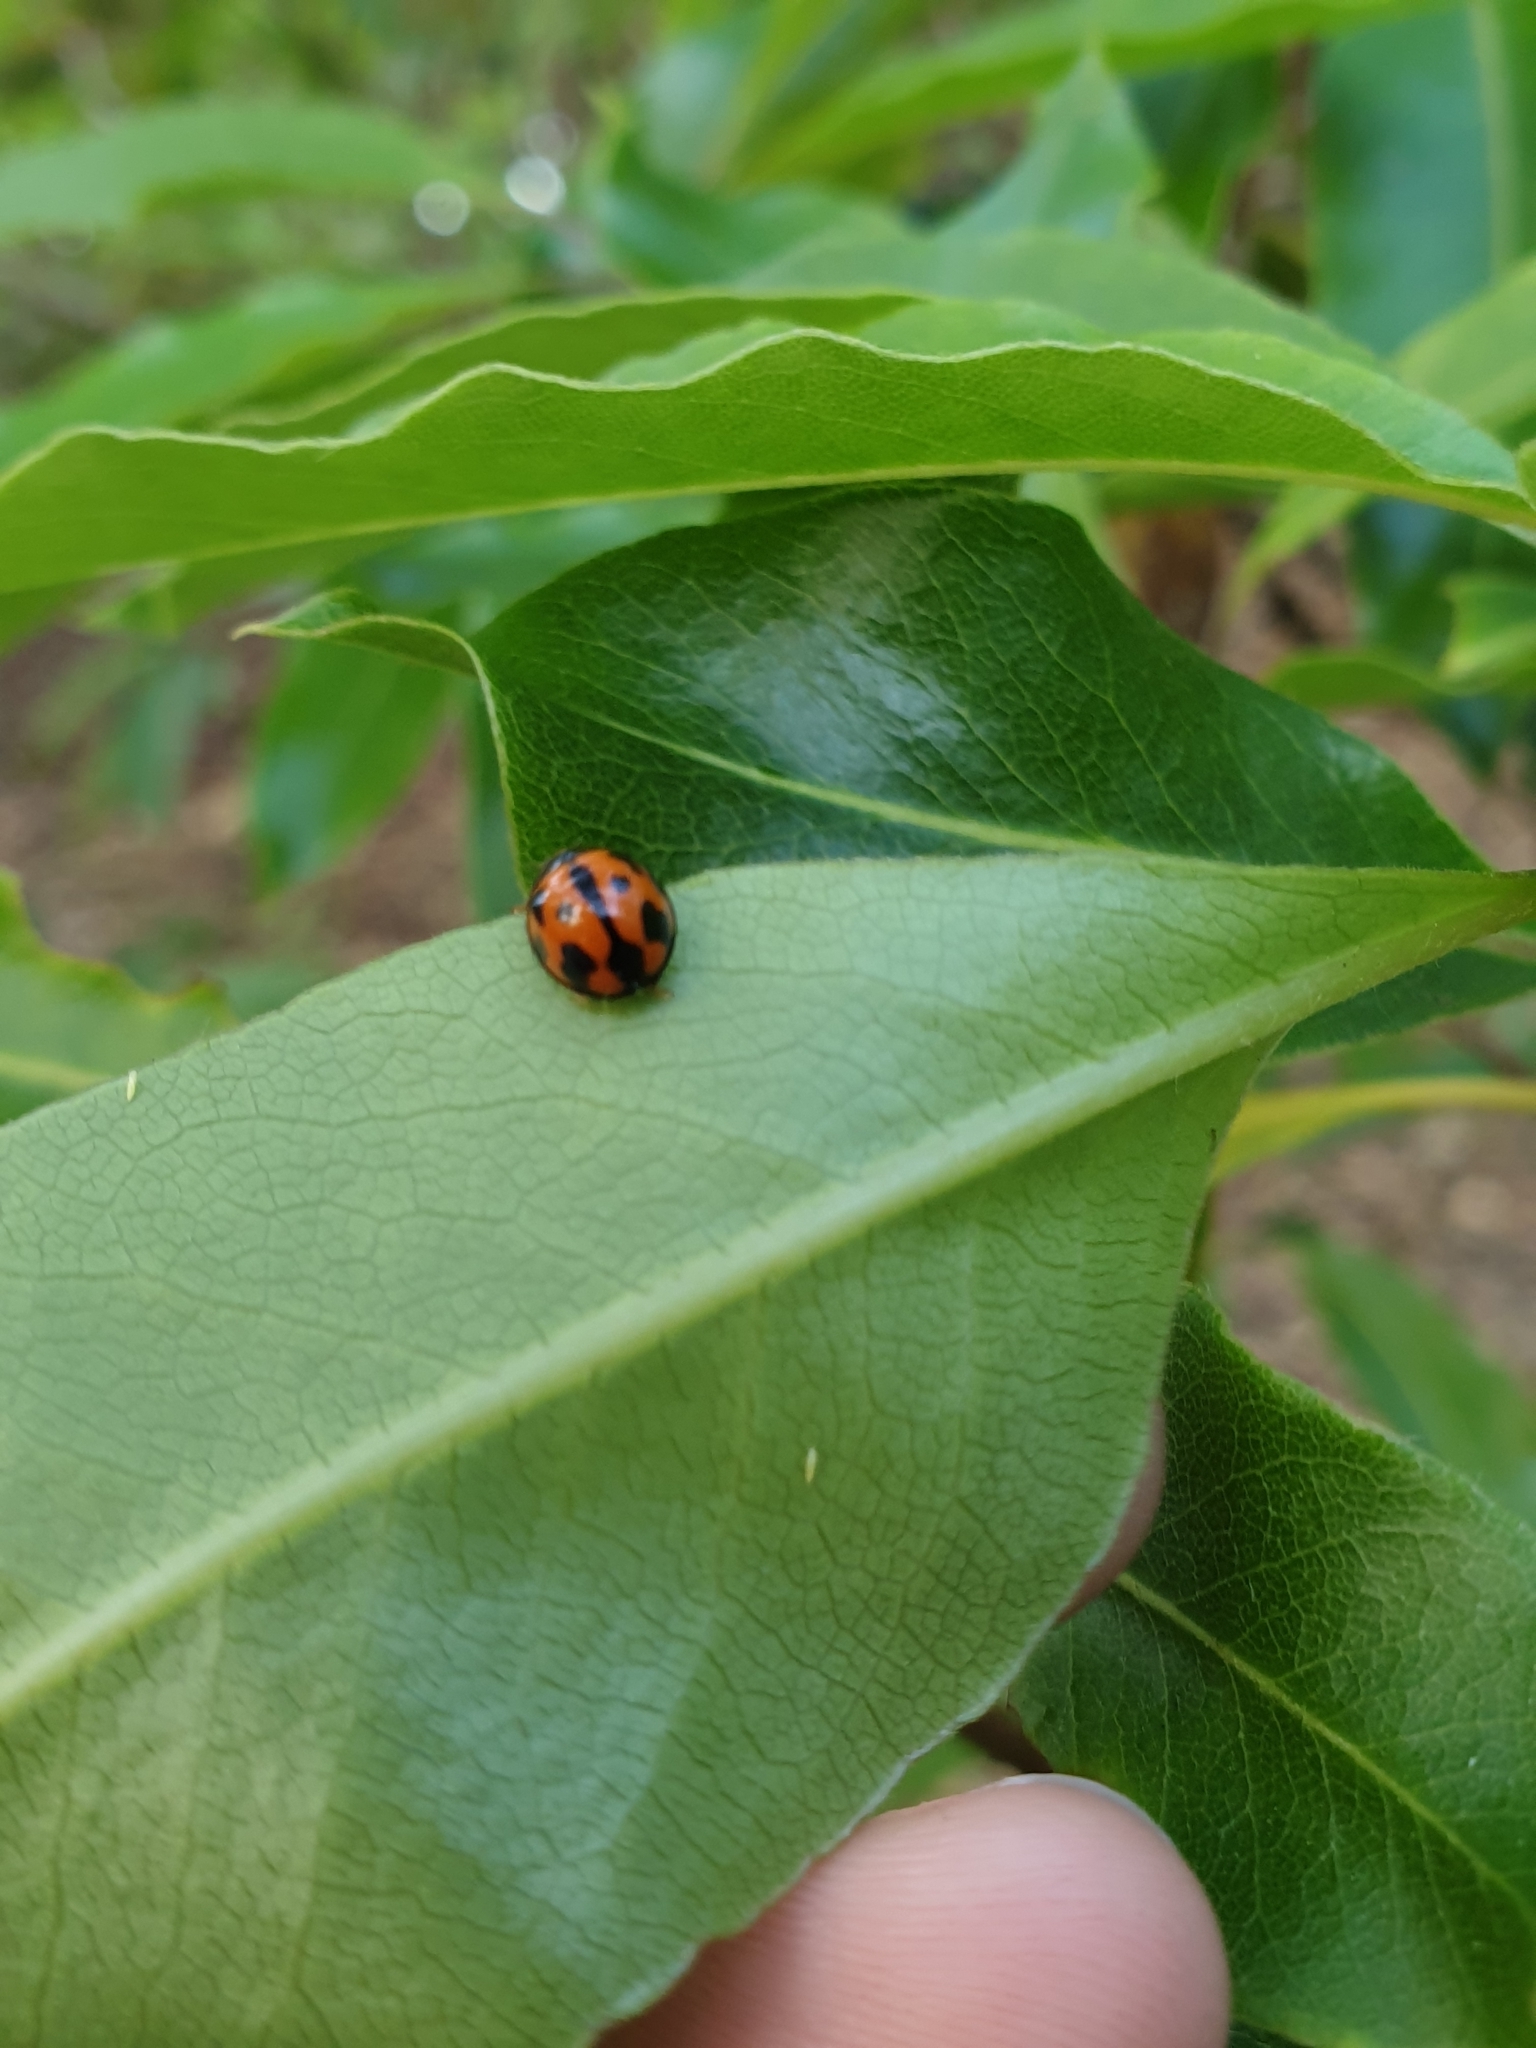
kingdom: Animalia
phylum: Arthropoda
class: Insecta
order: Coleoptera
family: Coccinellidae
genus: Coelophora
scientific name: Coelophora inaequalis
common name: Common australian lady beetle
